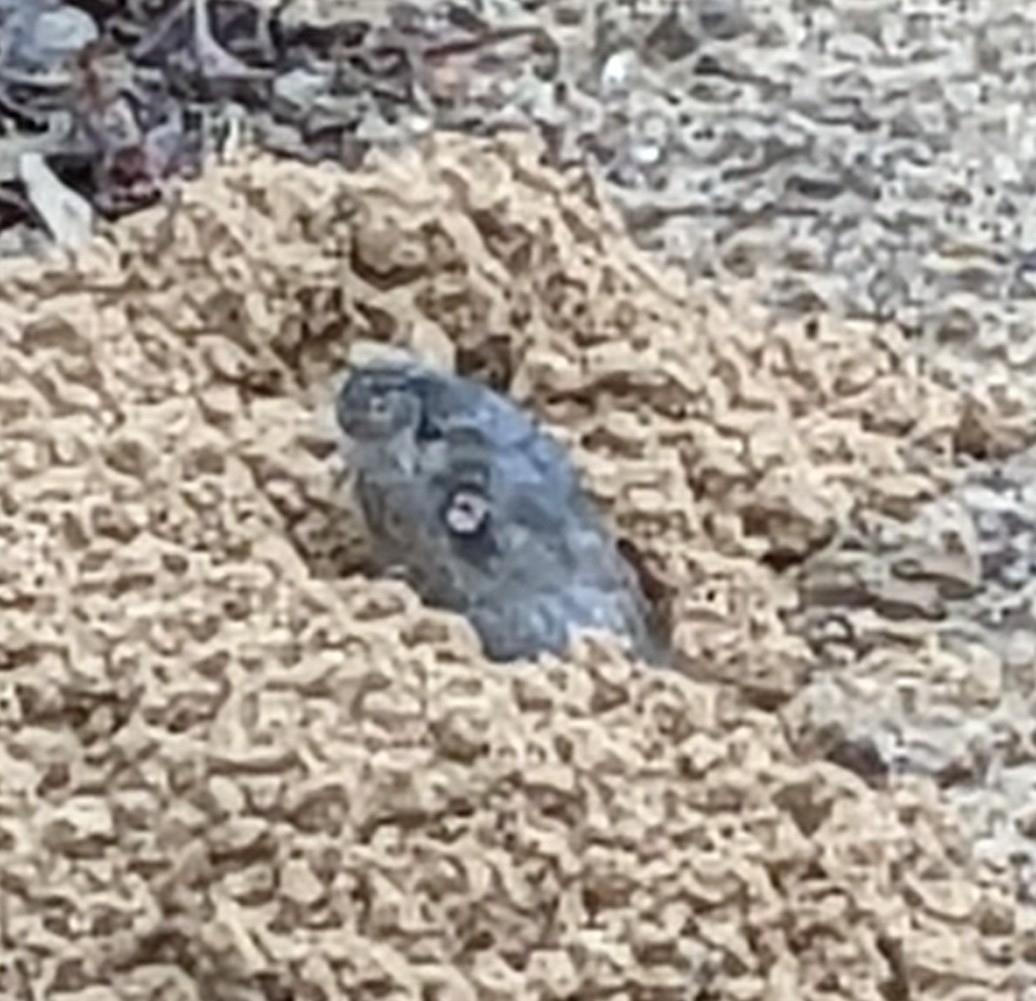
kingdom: Animalia
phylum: Chordata
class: Mammalia
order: Rodentia
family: Geomyidae
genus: Geomys
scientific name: Geomys attwateri
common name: Attwater's pocket gopher
